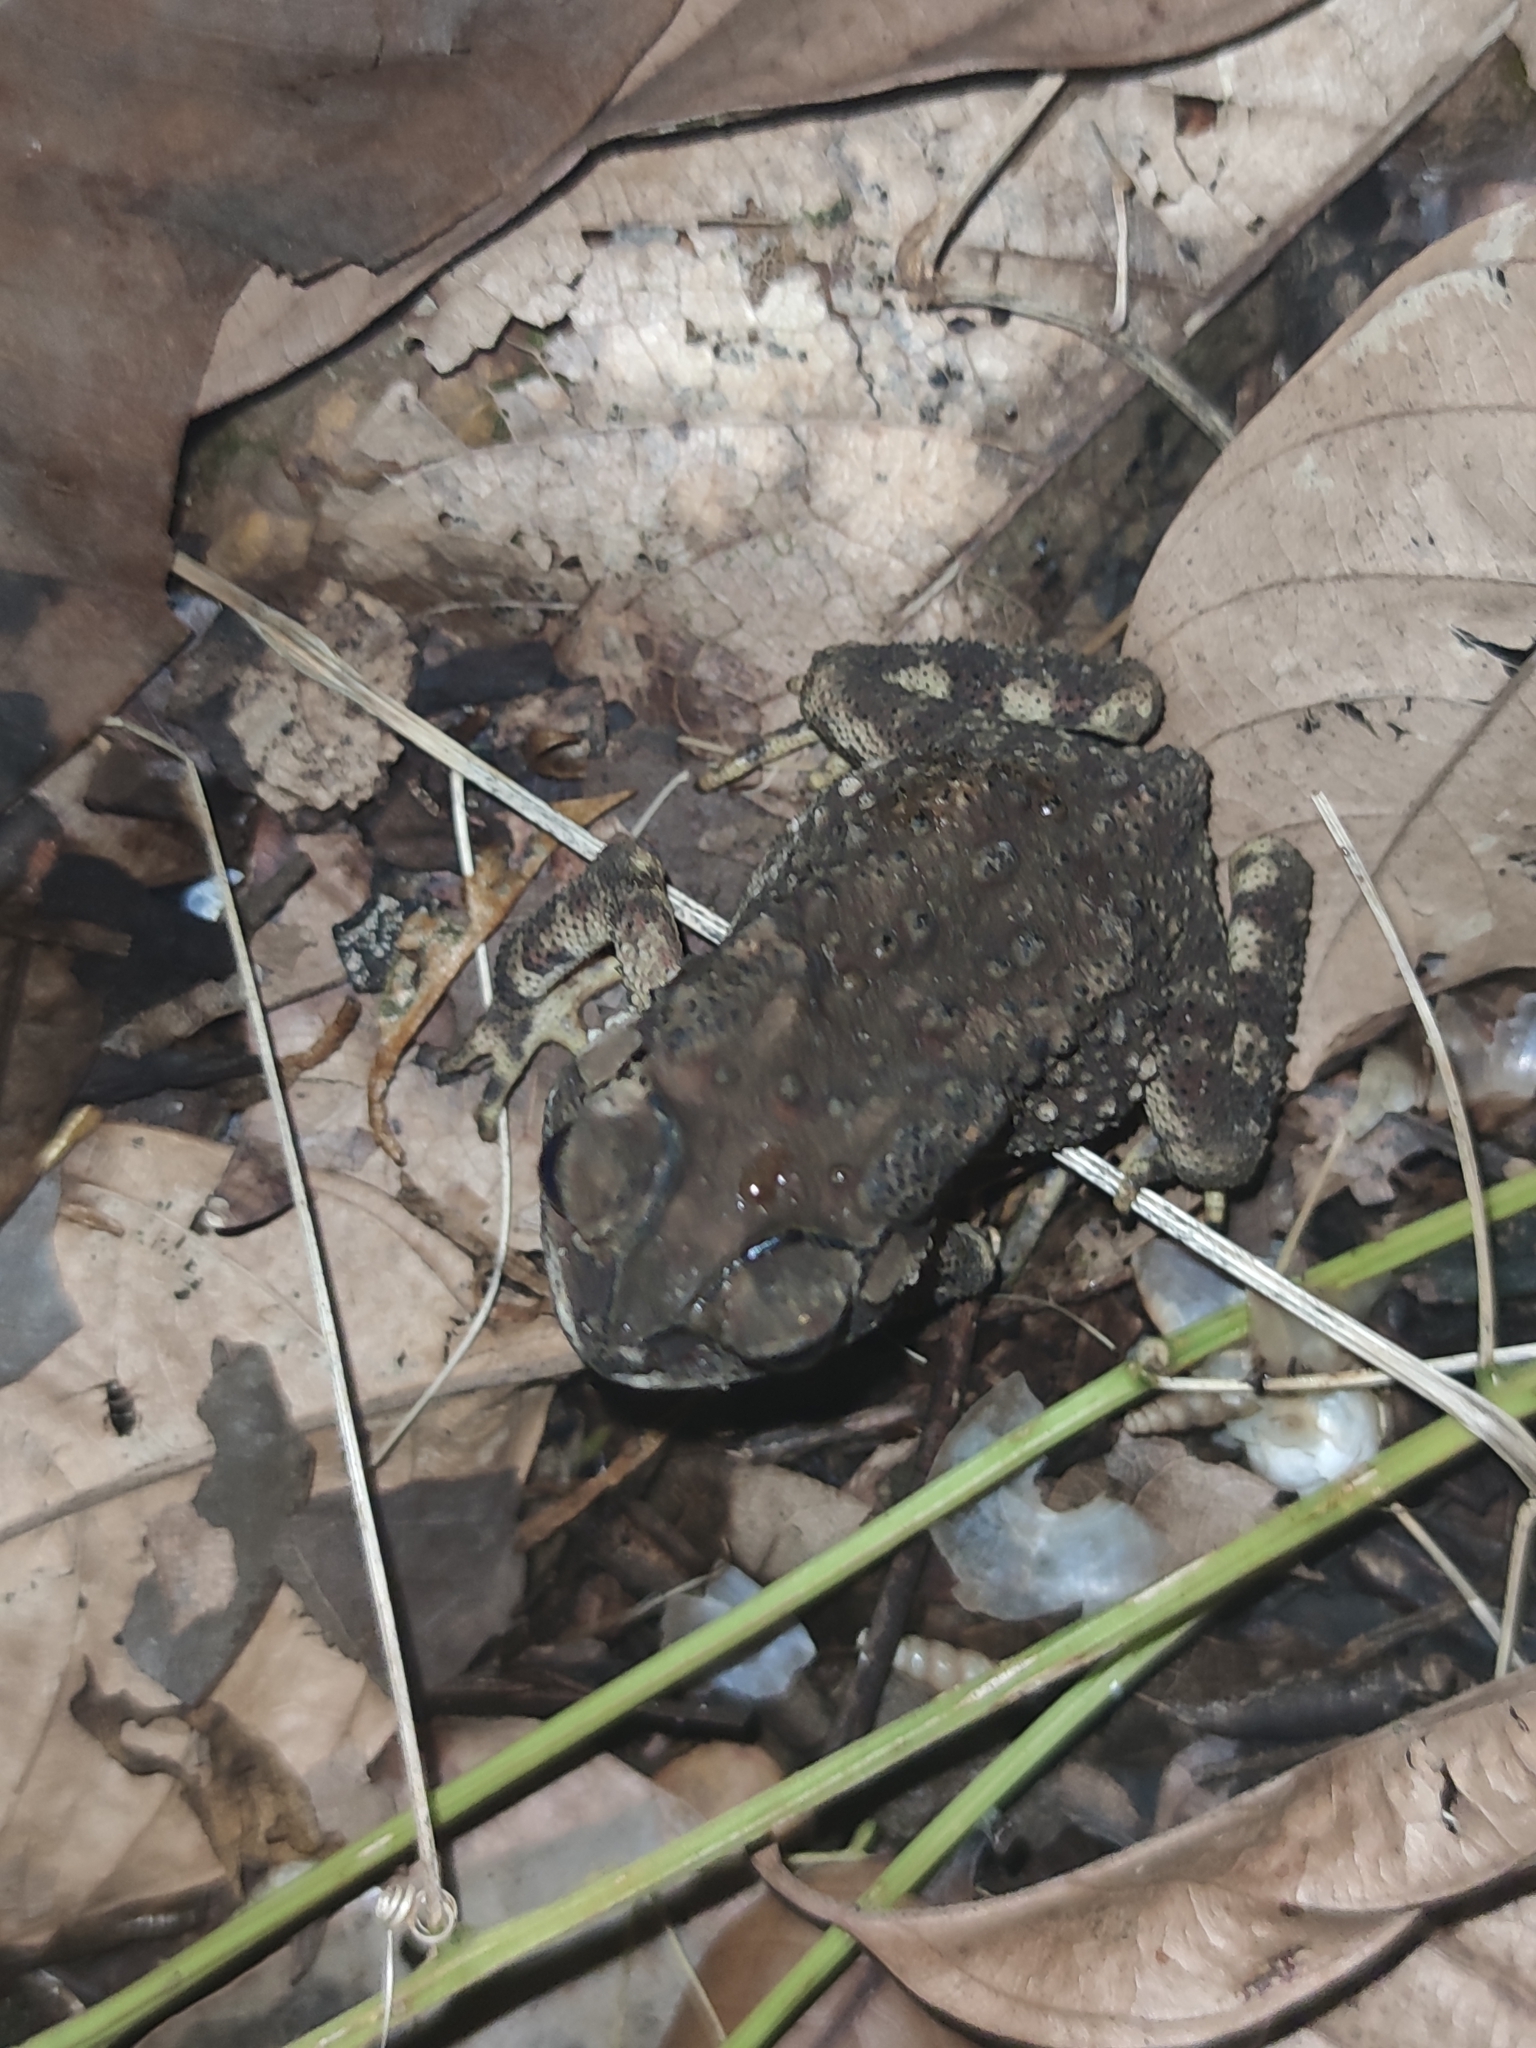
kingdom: Animalia
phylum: Chordata
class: Amphibia
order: Anura
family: Bufonidae
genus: Duttaphrynus
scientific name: Duttaphrynus melanostictus
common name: Common sunda toad
